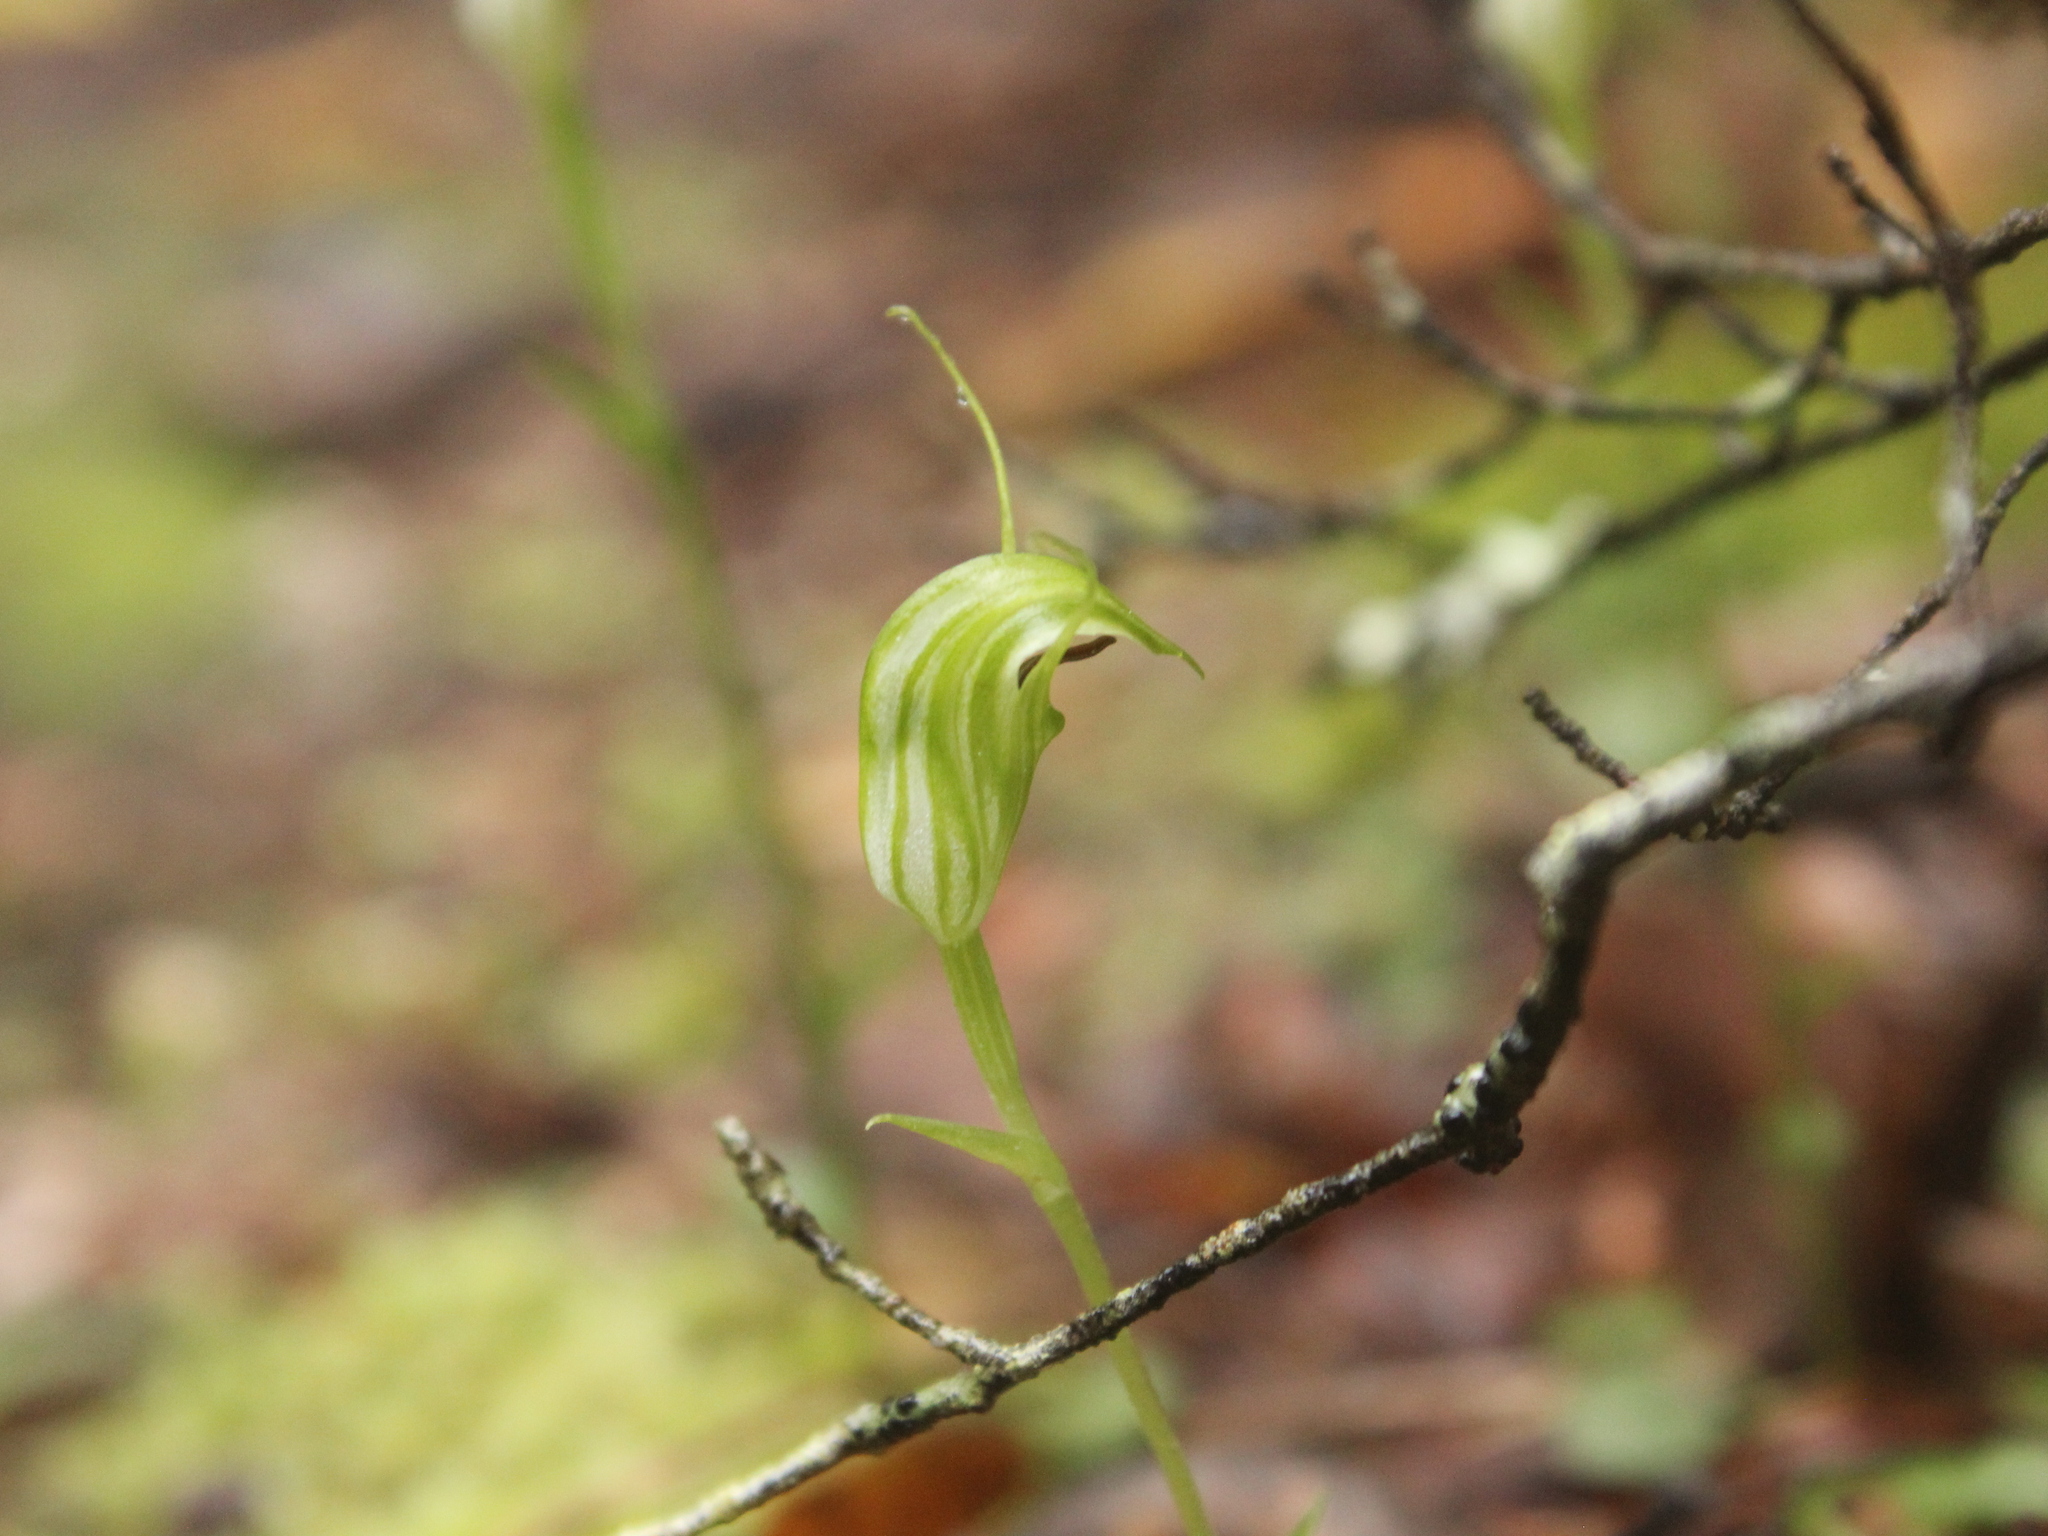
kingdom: Plantae
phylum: Tracheophyta
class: Liliopsida
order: Asparagales
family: Orchidaceae
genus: Pterostylis
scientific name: Pterostylis trullifolia
